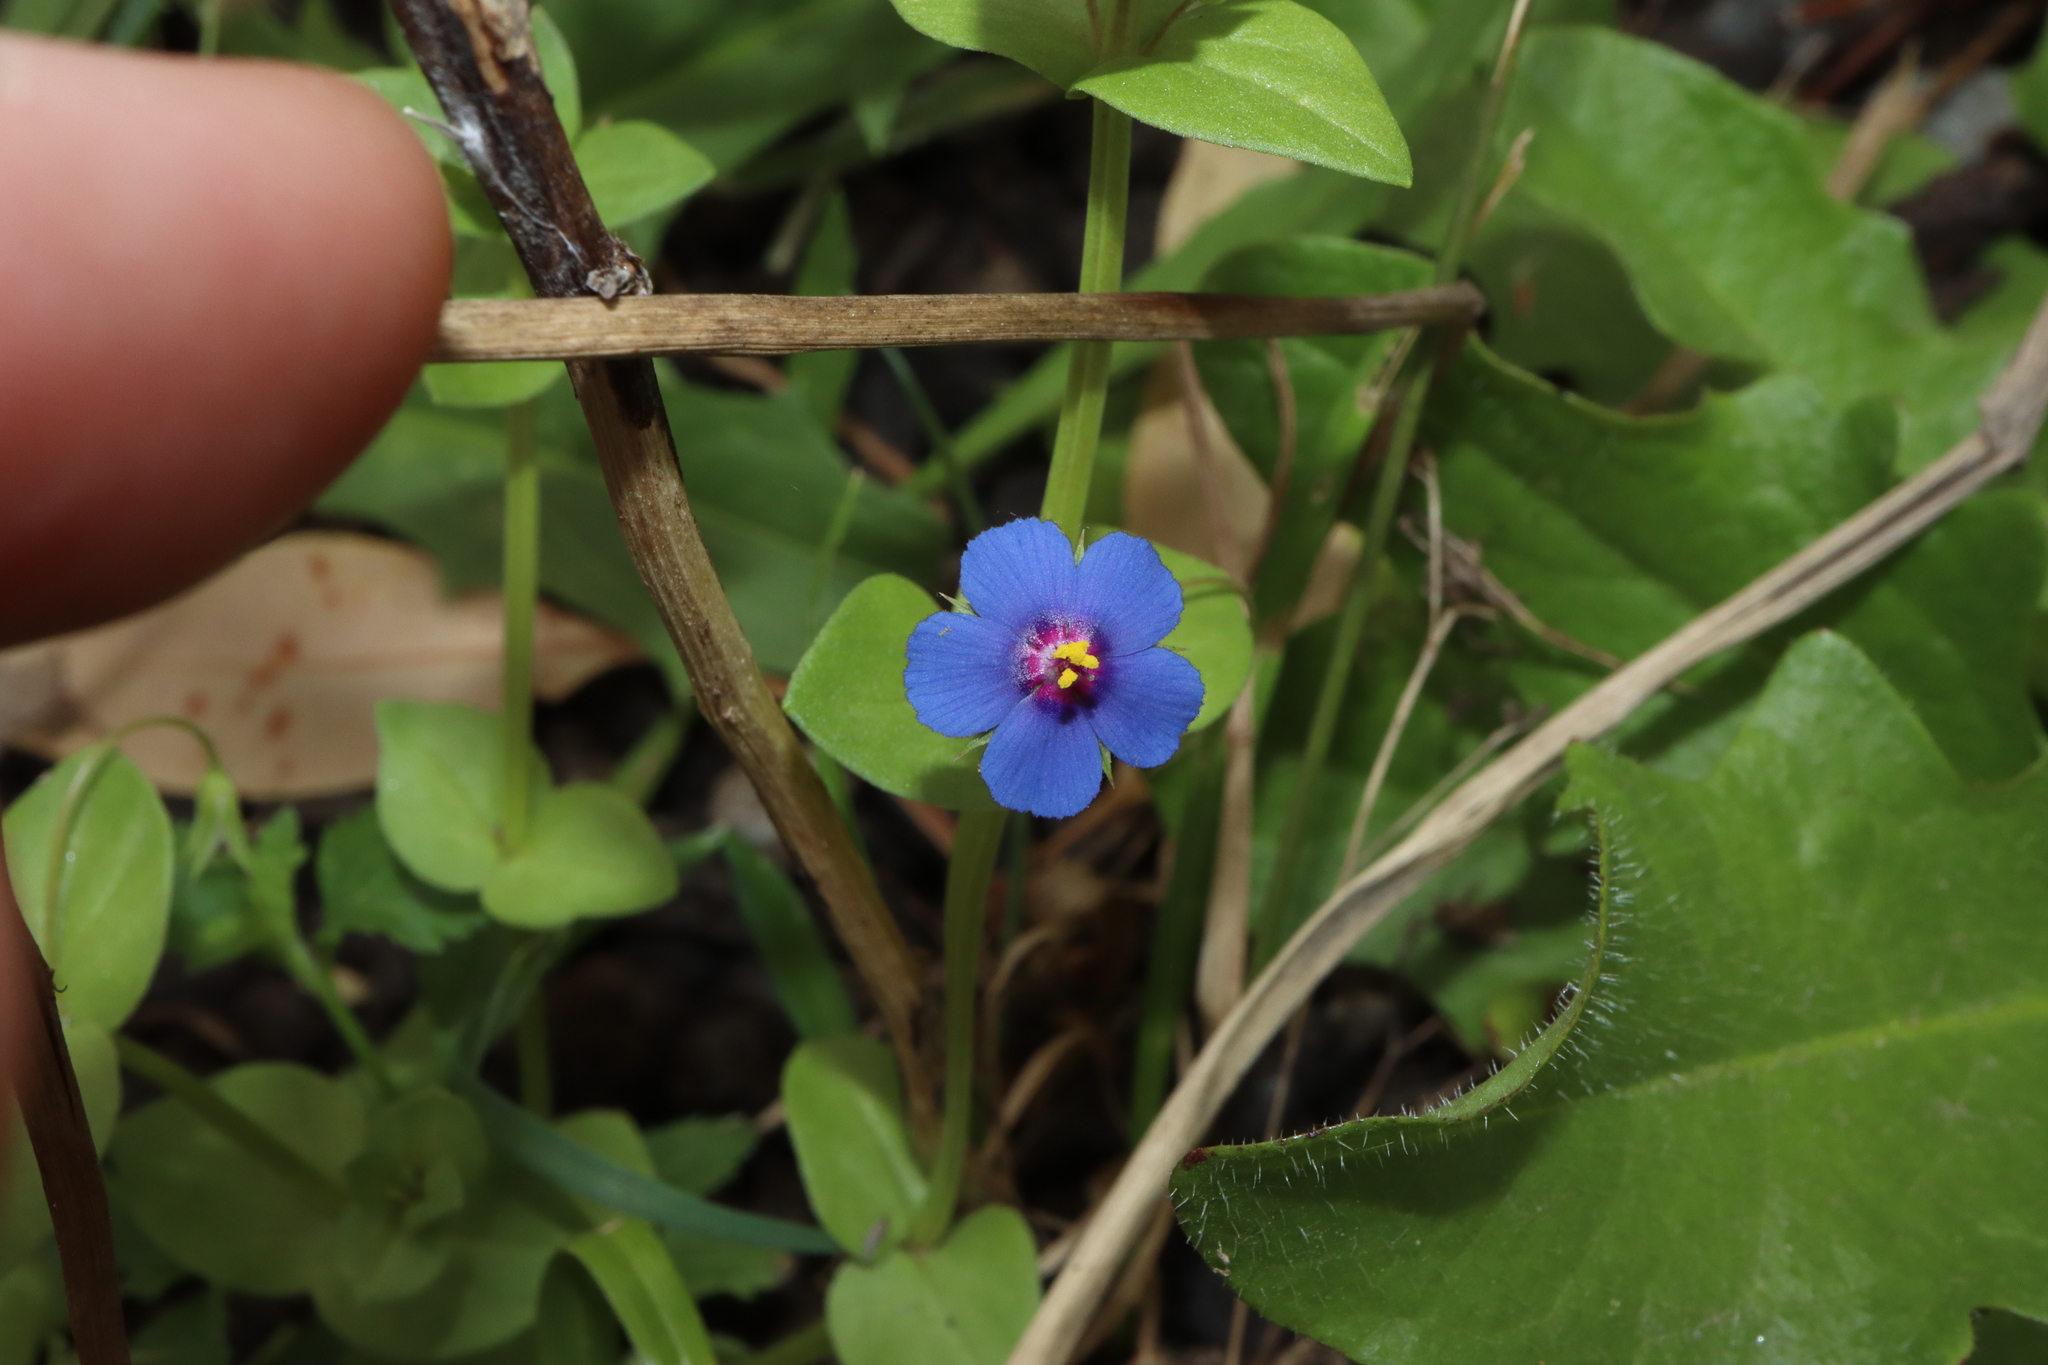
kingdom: Plantae
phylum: Tracheophyta
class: Magnoliopsida
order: Ericales
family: Primulaceae
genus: Lysimachia
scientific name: Lysimachia loeflingii
